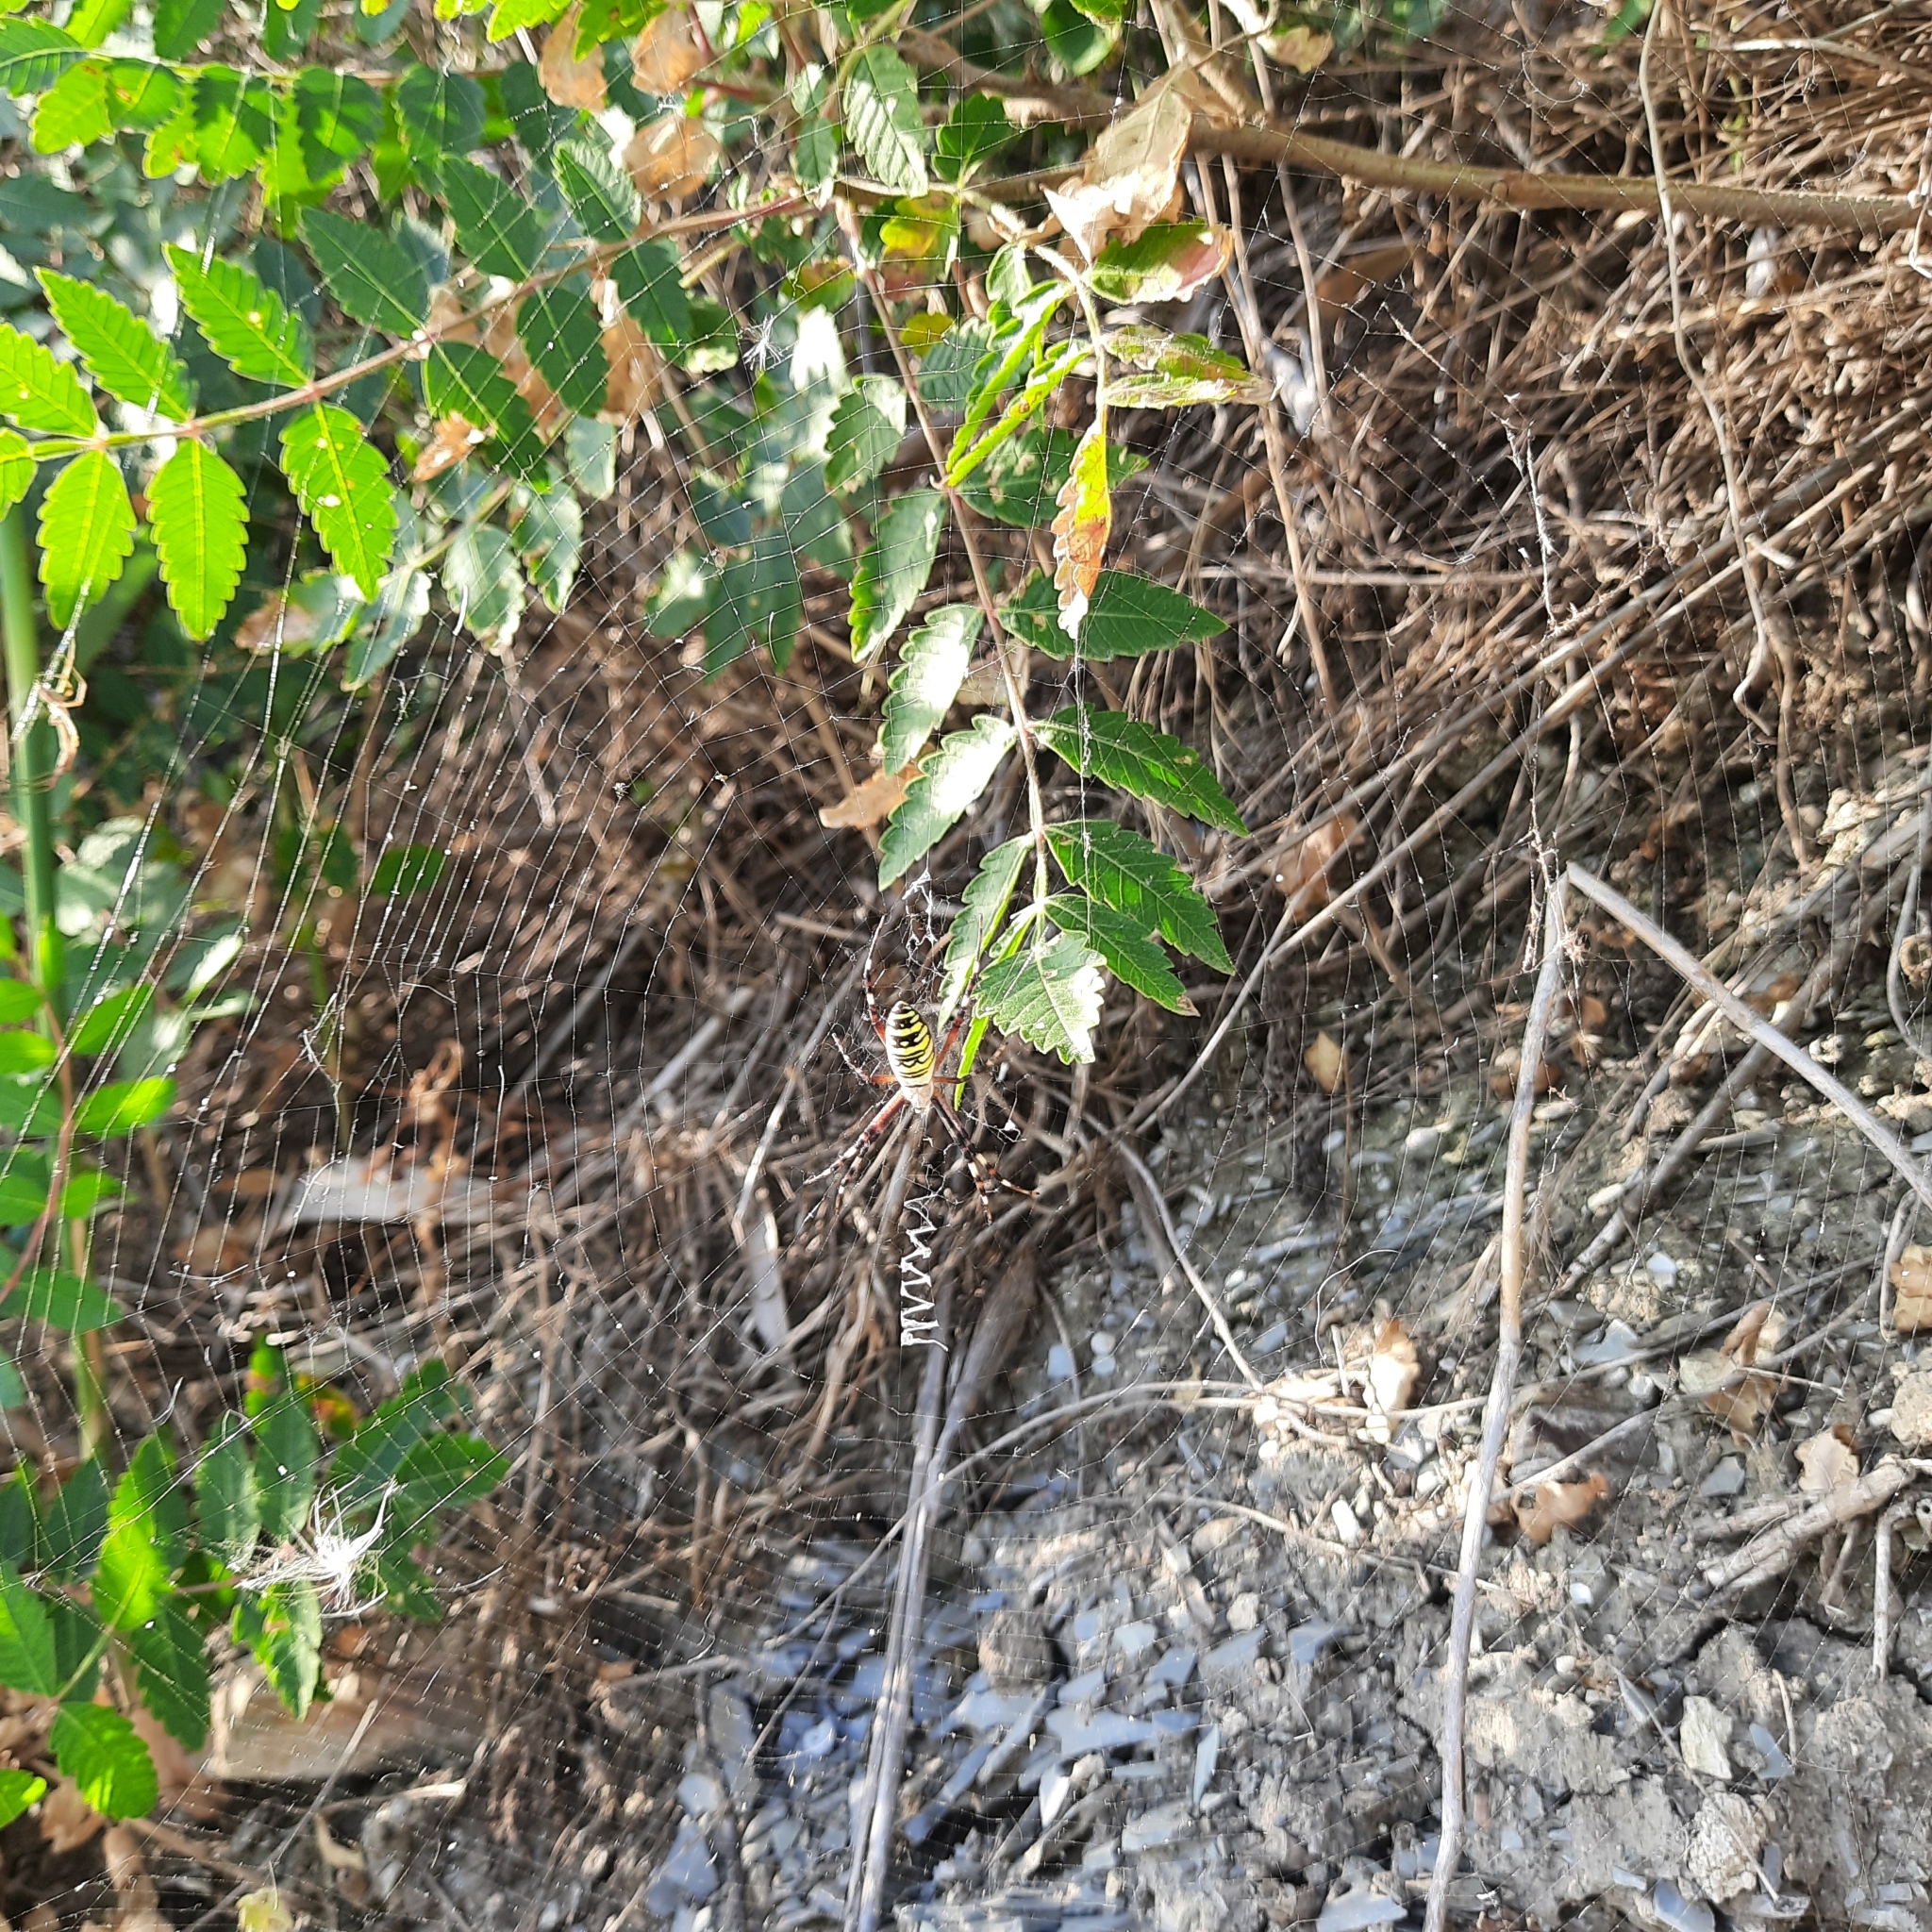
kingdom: Animalia
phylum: Arthropoda
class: Arachnida
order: Araneae
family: Araneidae
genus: Argiope
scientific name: Argiope bruennichi
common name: Wasp spider
